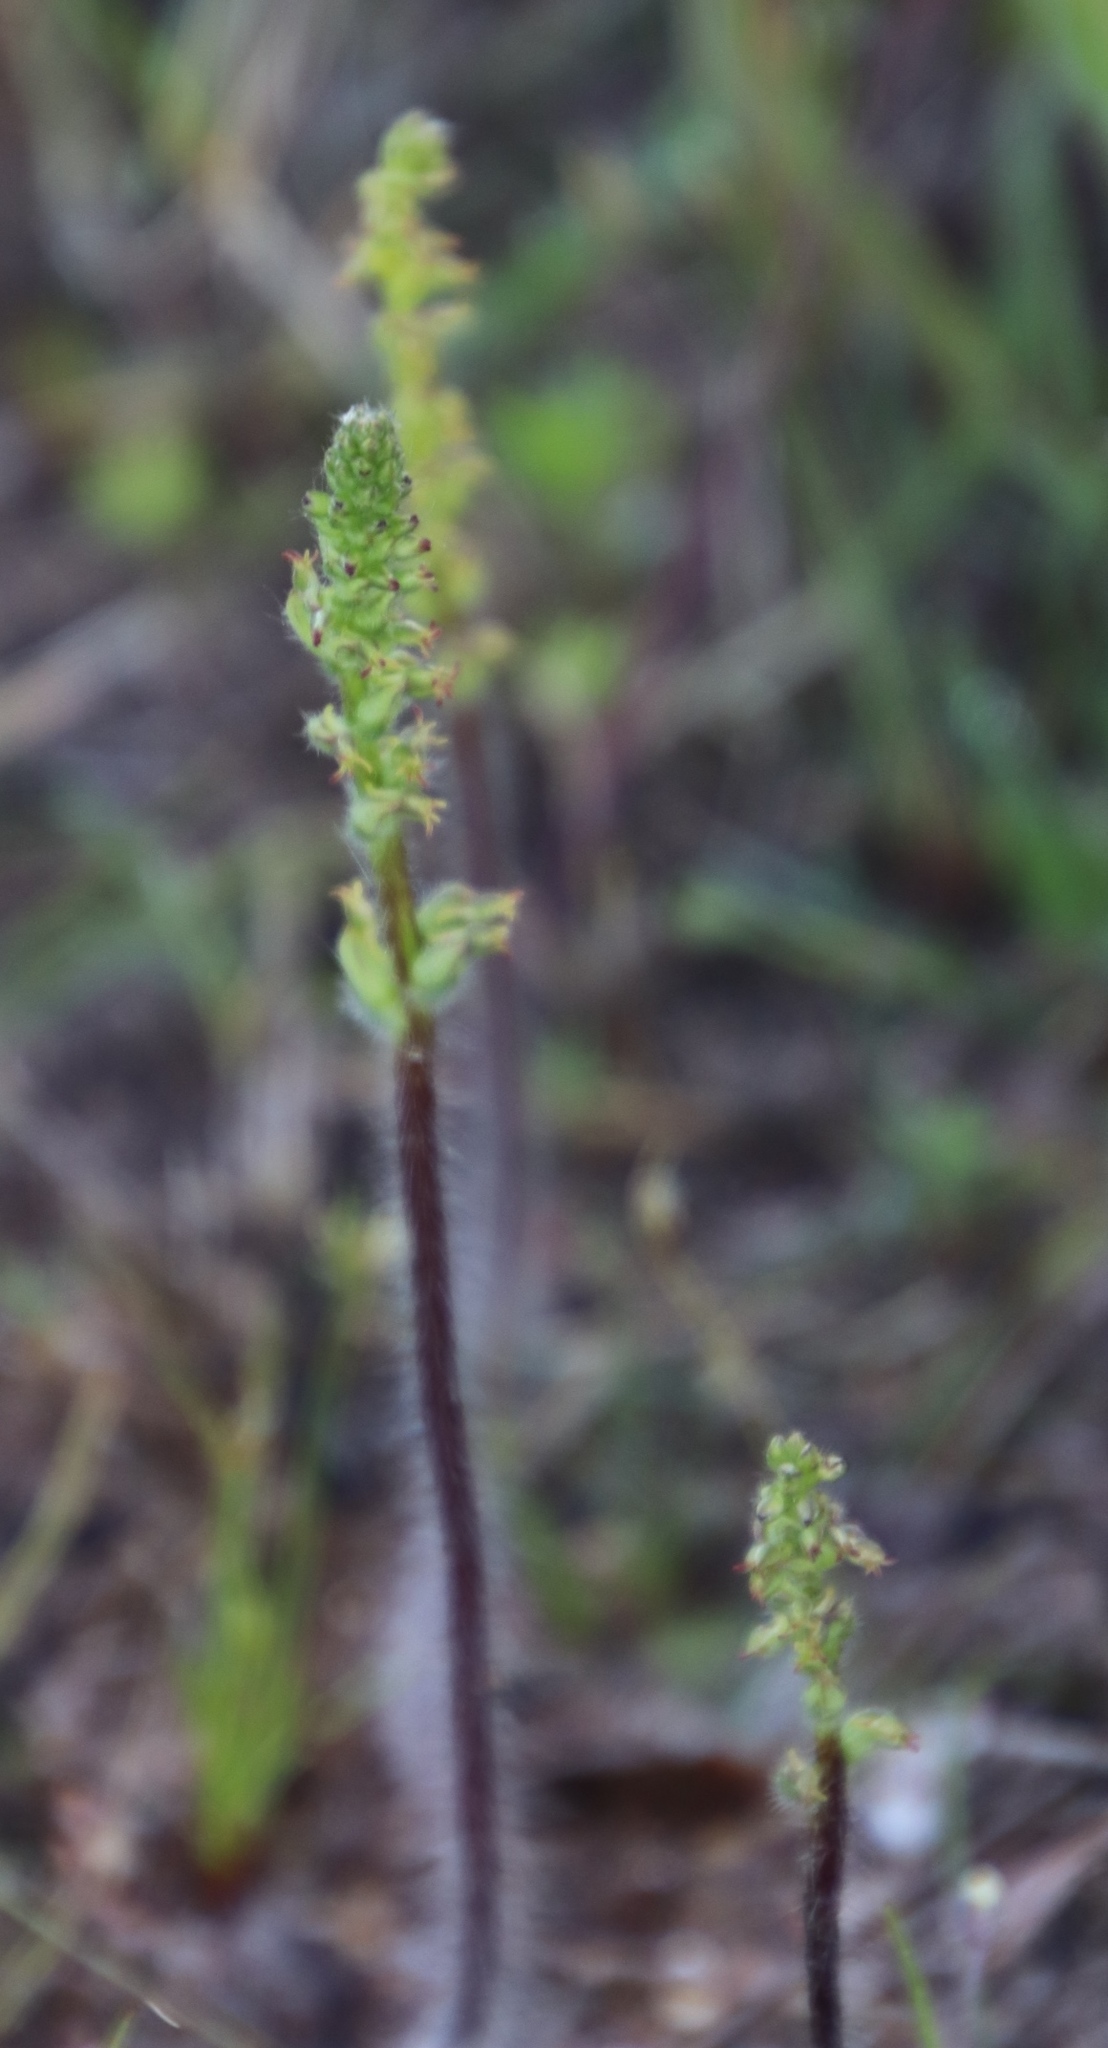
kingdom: Plantae
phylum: Tracheophyta
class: Liliopsida
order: Asparagales
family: Orchidaceae
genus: Holothrix
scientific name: Holothrix villosa
